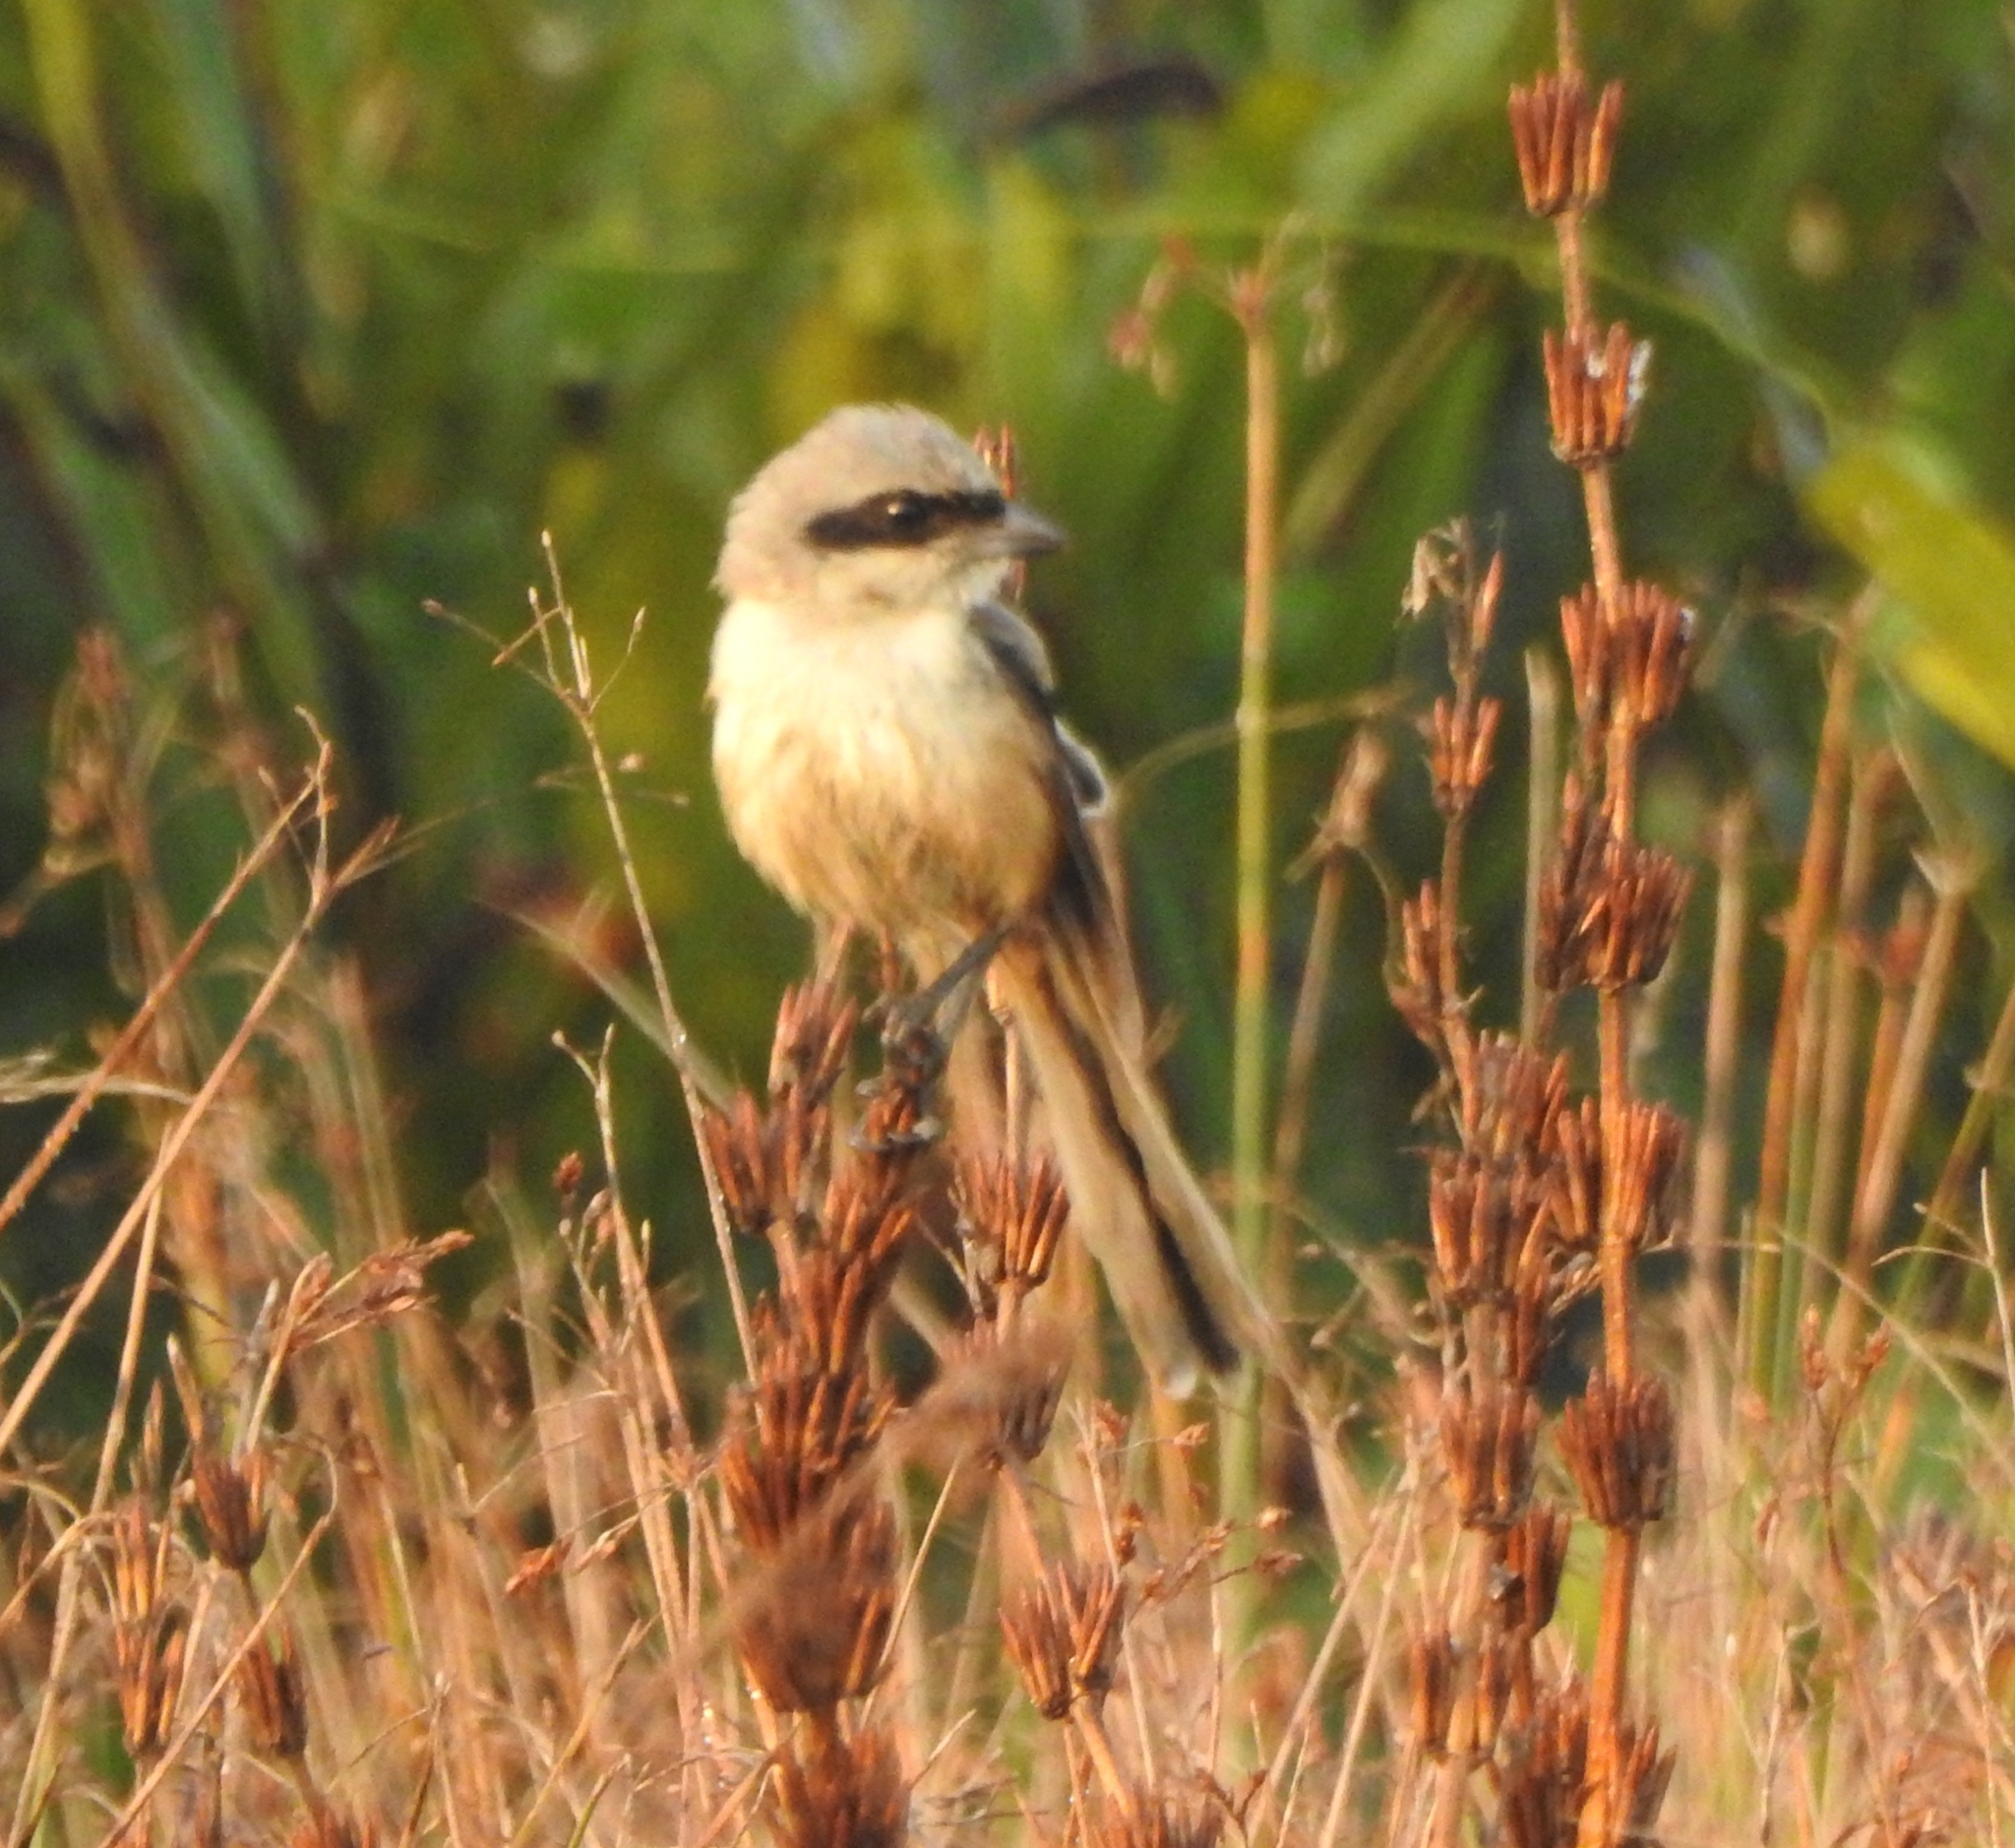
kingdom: Animalia
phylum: Chordata
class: Aves
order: Passeriformes
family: Laniidae
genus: Lanius
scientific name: Lanius schach
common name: Long-tailed shrike
